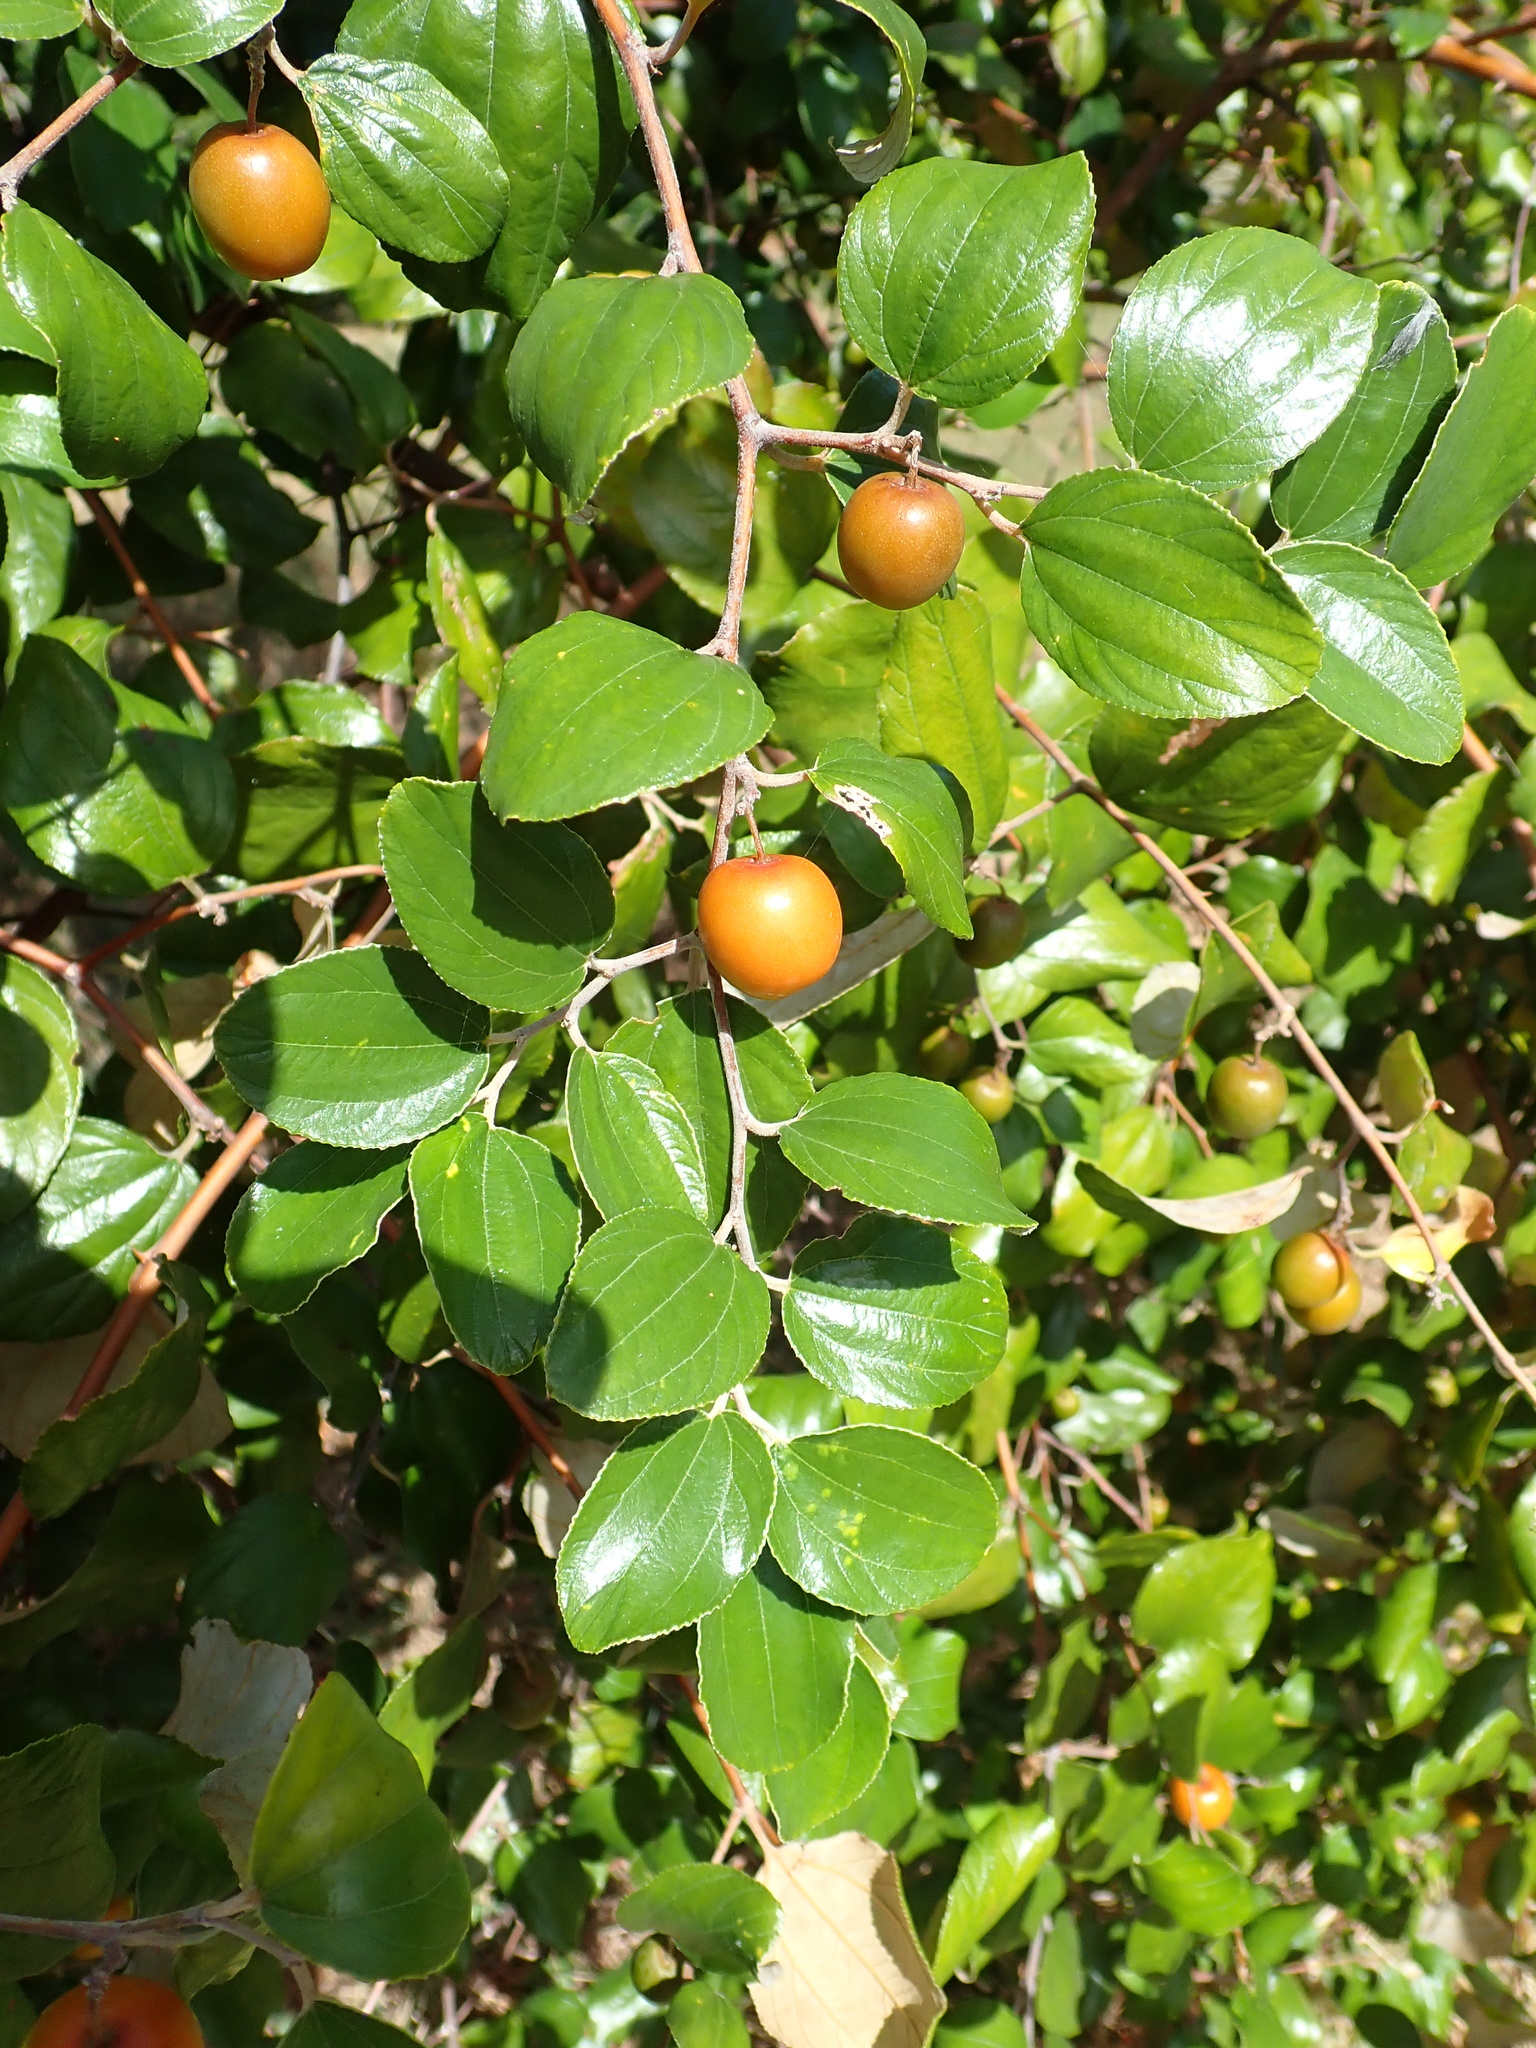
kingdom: Plantae
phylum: Tracheophyta
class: Magnoliopsida
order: Rosales
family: Rhamnaceae
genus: Ziziphus
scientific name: Ziziphus mauritiana
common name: Indian jujube
